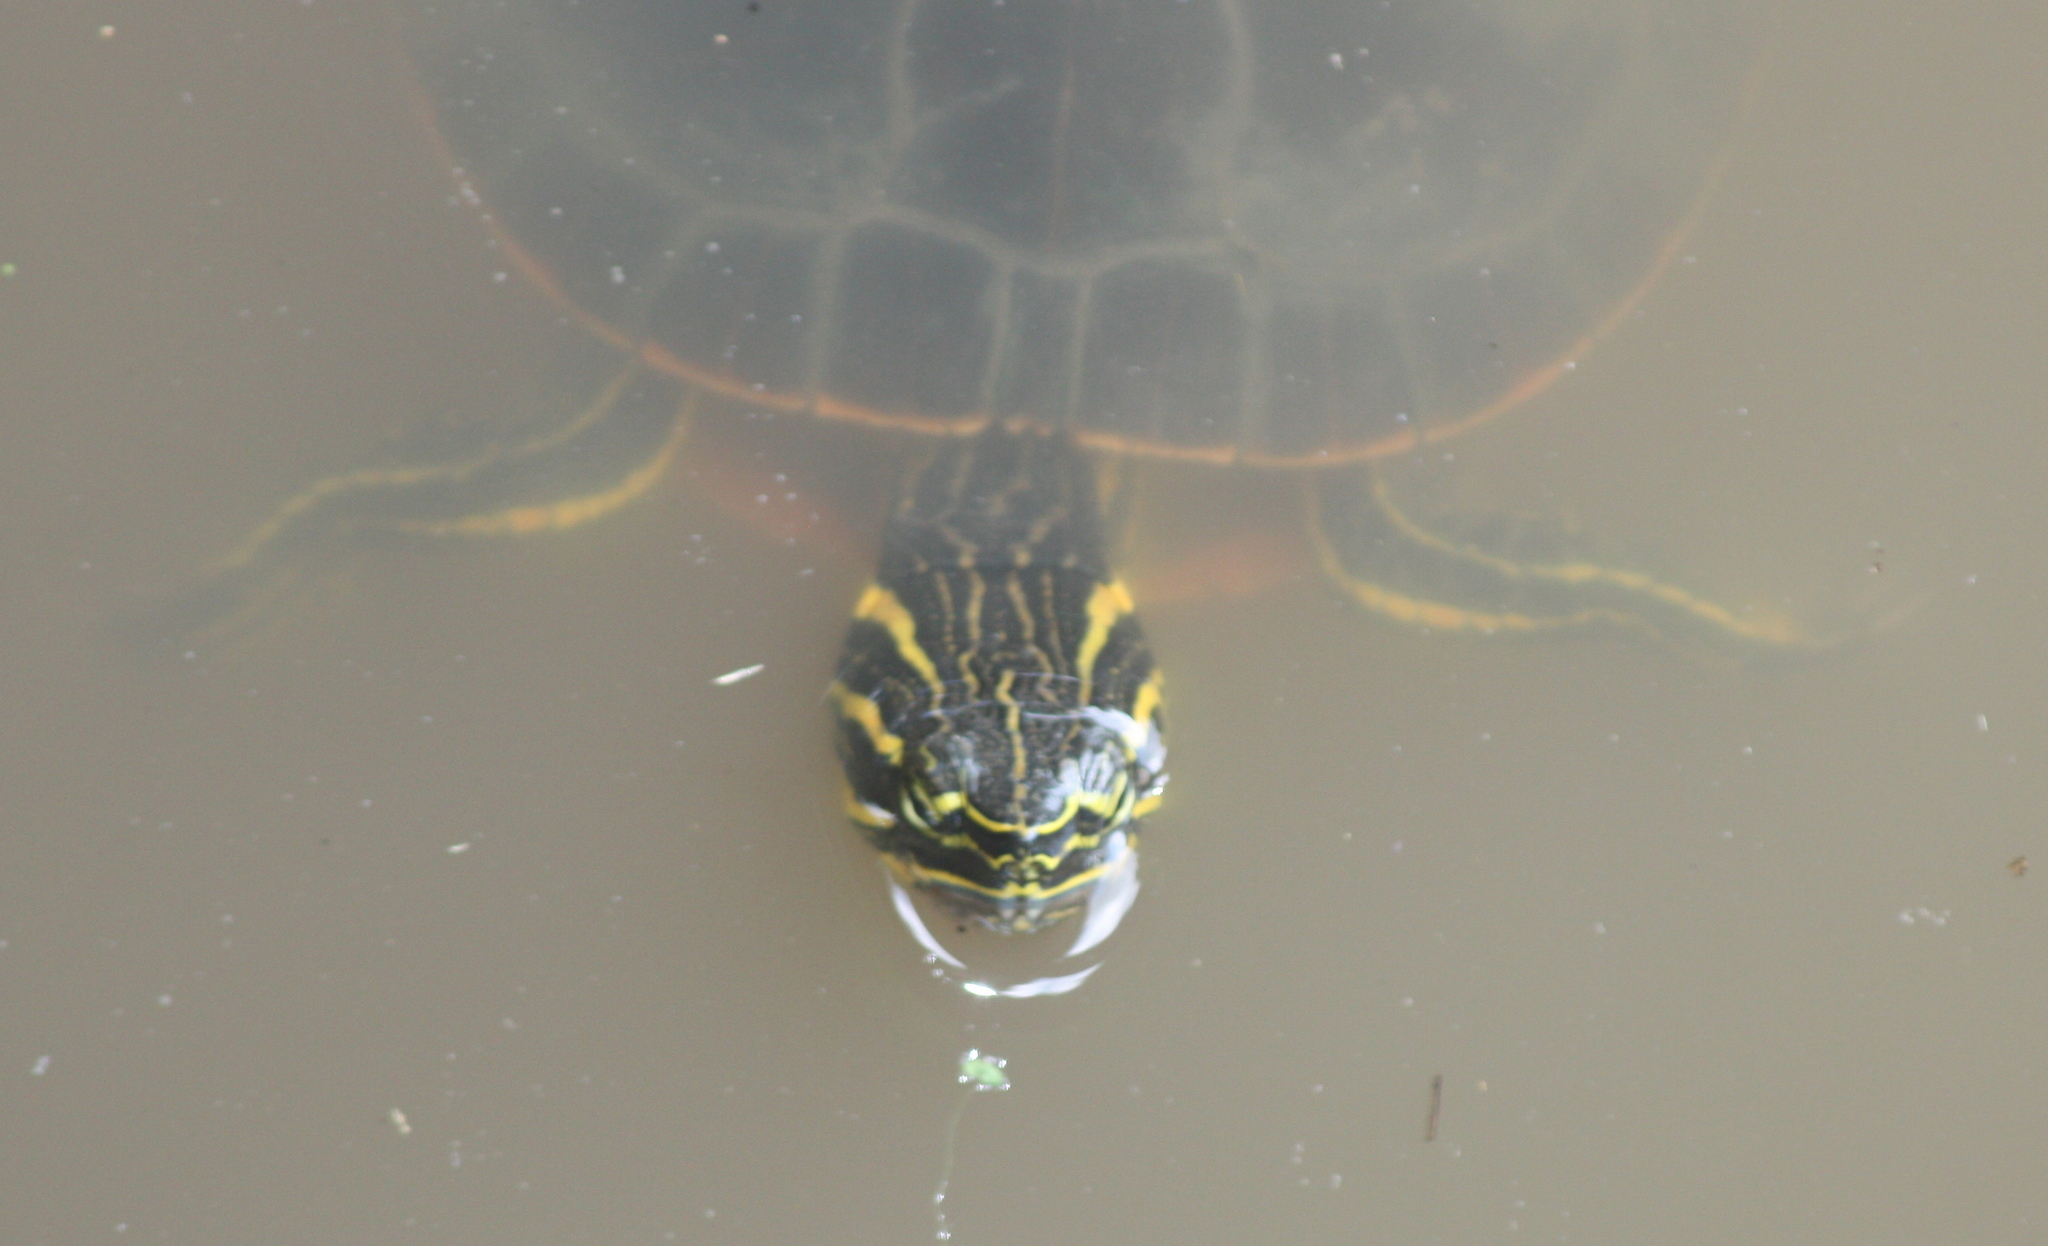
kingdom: Animalia
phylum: Chordata
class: Testudines
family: Emydidae
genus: Chrysemys
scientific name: Chrysemys picta
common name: Painted turtle
